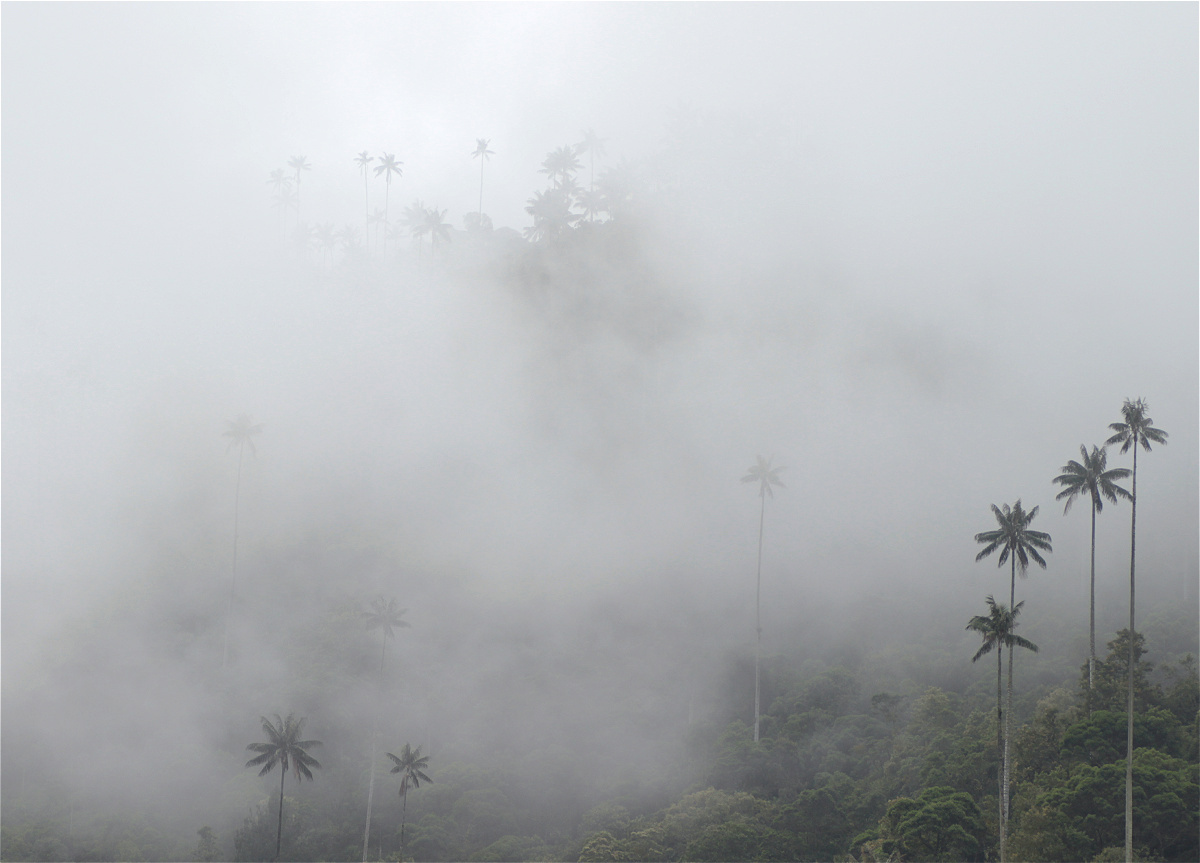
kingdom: Plantae
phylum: Tracheophyta
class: Liliopsida
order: Arecales
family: Arecaceae
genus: Ceroxylon
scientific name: Ceroxylon quindiuense
